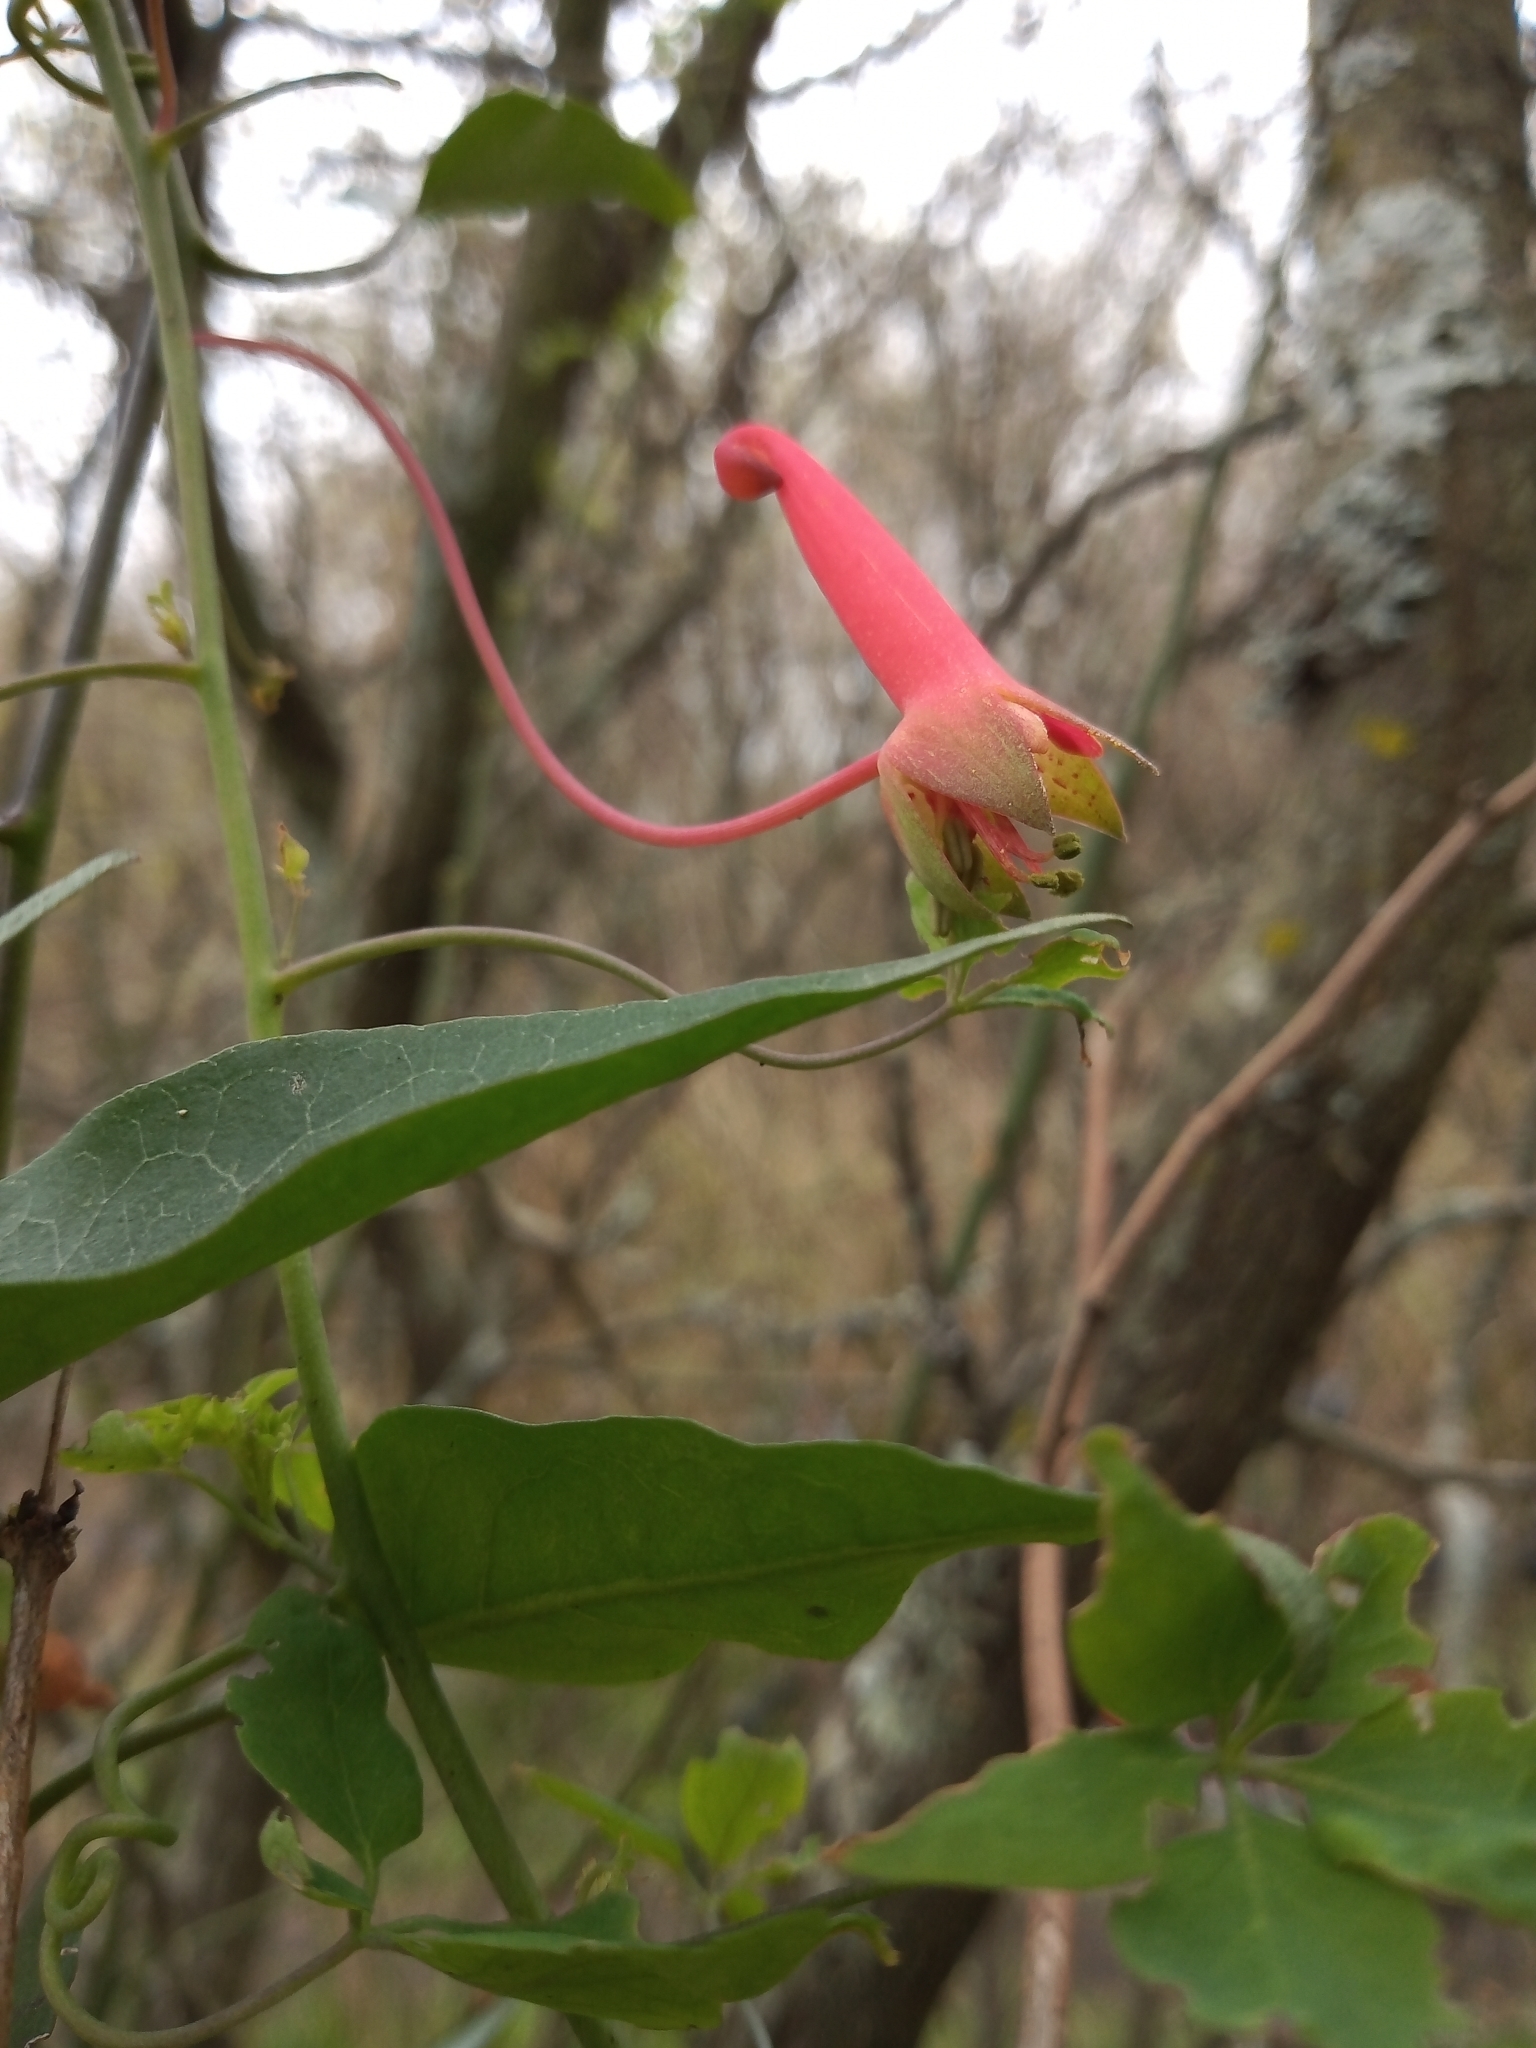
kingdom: Plantae
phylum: Tracheophyta
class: Magnoliopsida
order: Brassicales
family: Tropaeolaceae
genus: Tropaeolum
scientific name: Tropaeolum pentaphyllum
